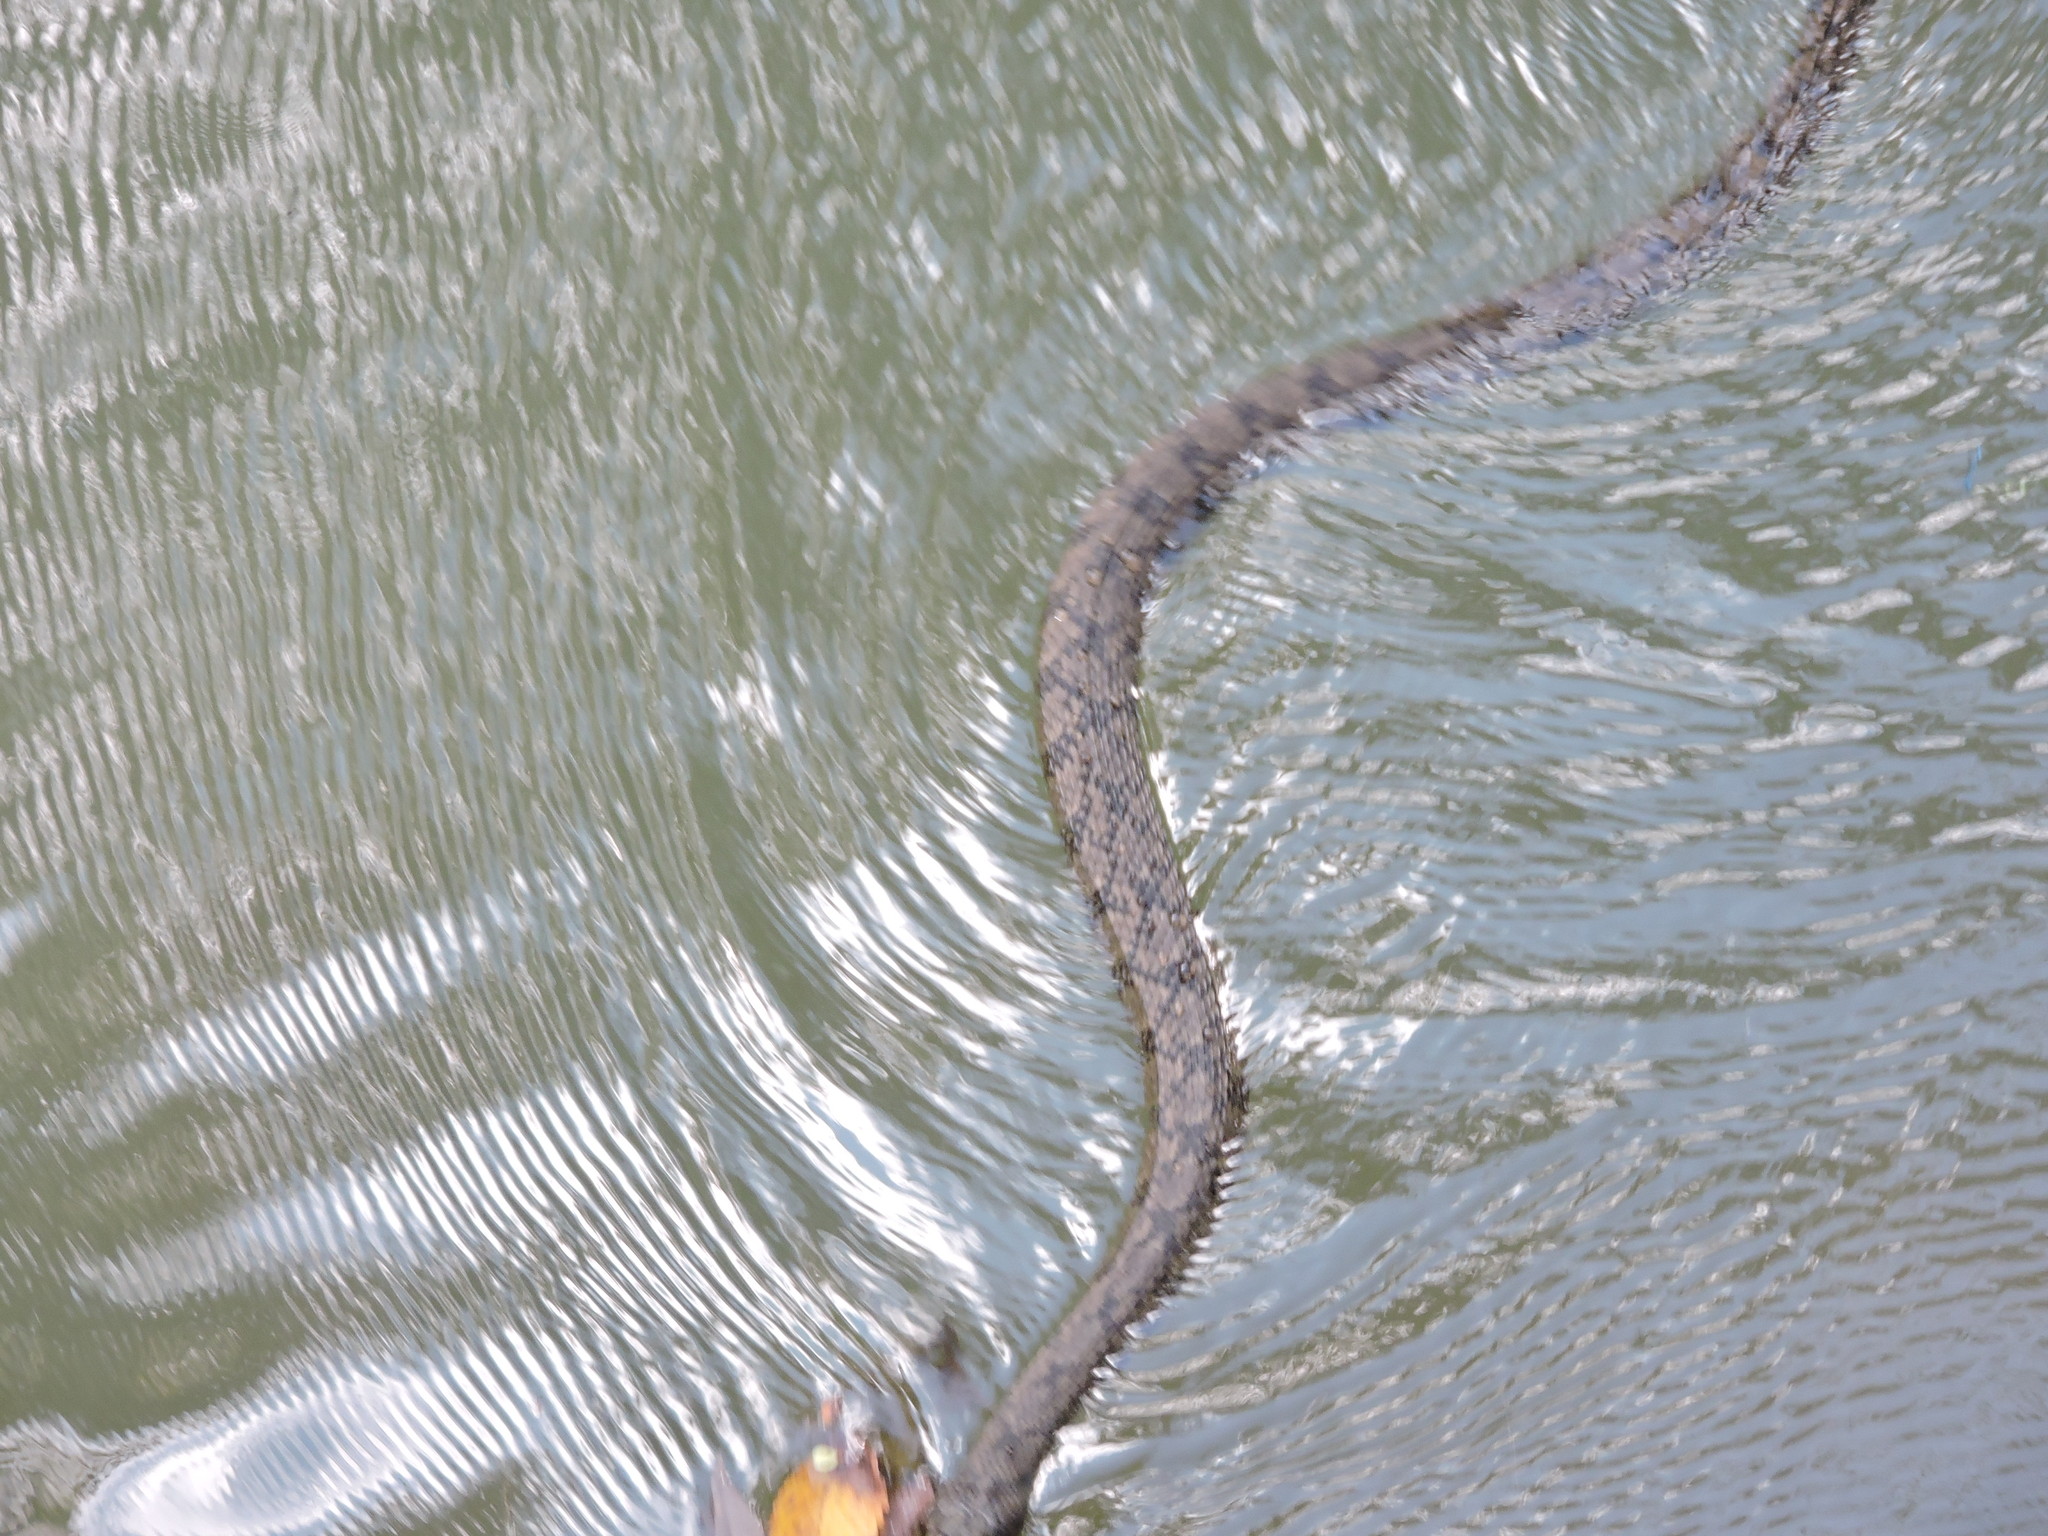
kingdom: Animalia
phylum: Chordata
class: Squamata
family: Colubridae
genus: Nerodia
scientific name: Nerodia rhombifer
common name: Diamondback water snake
